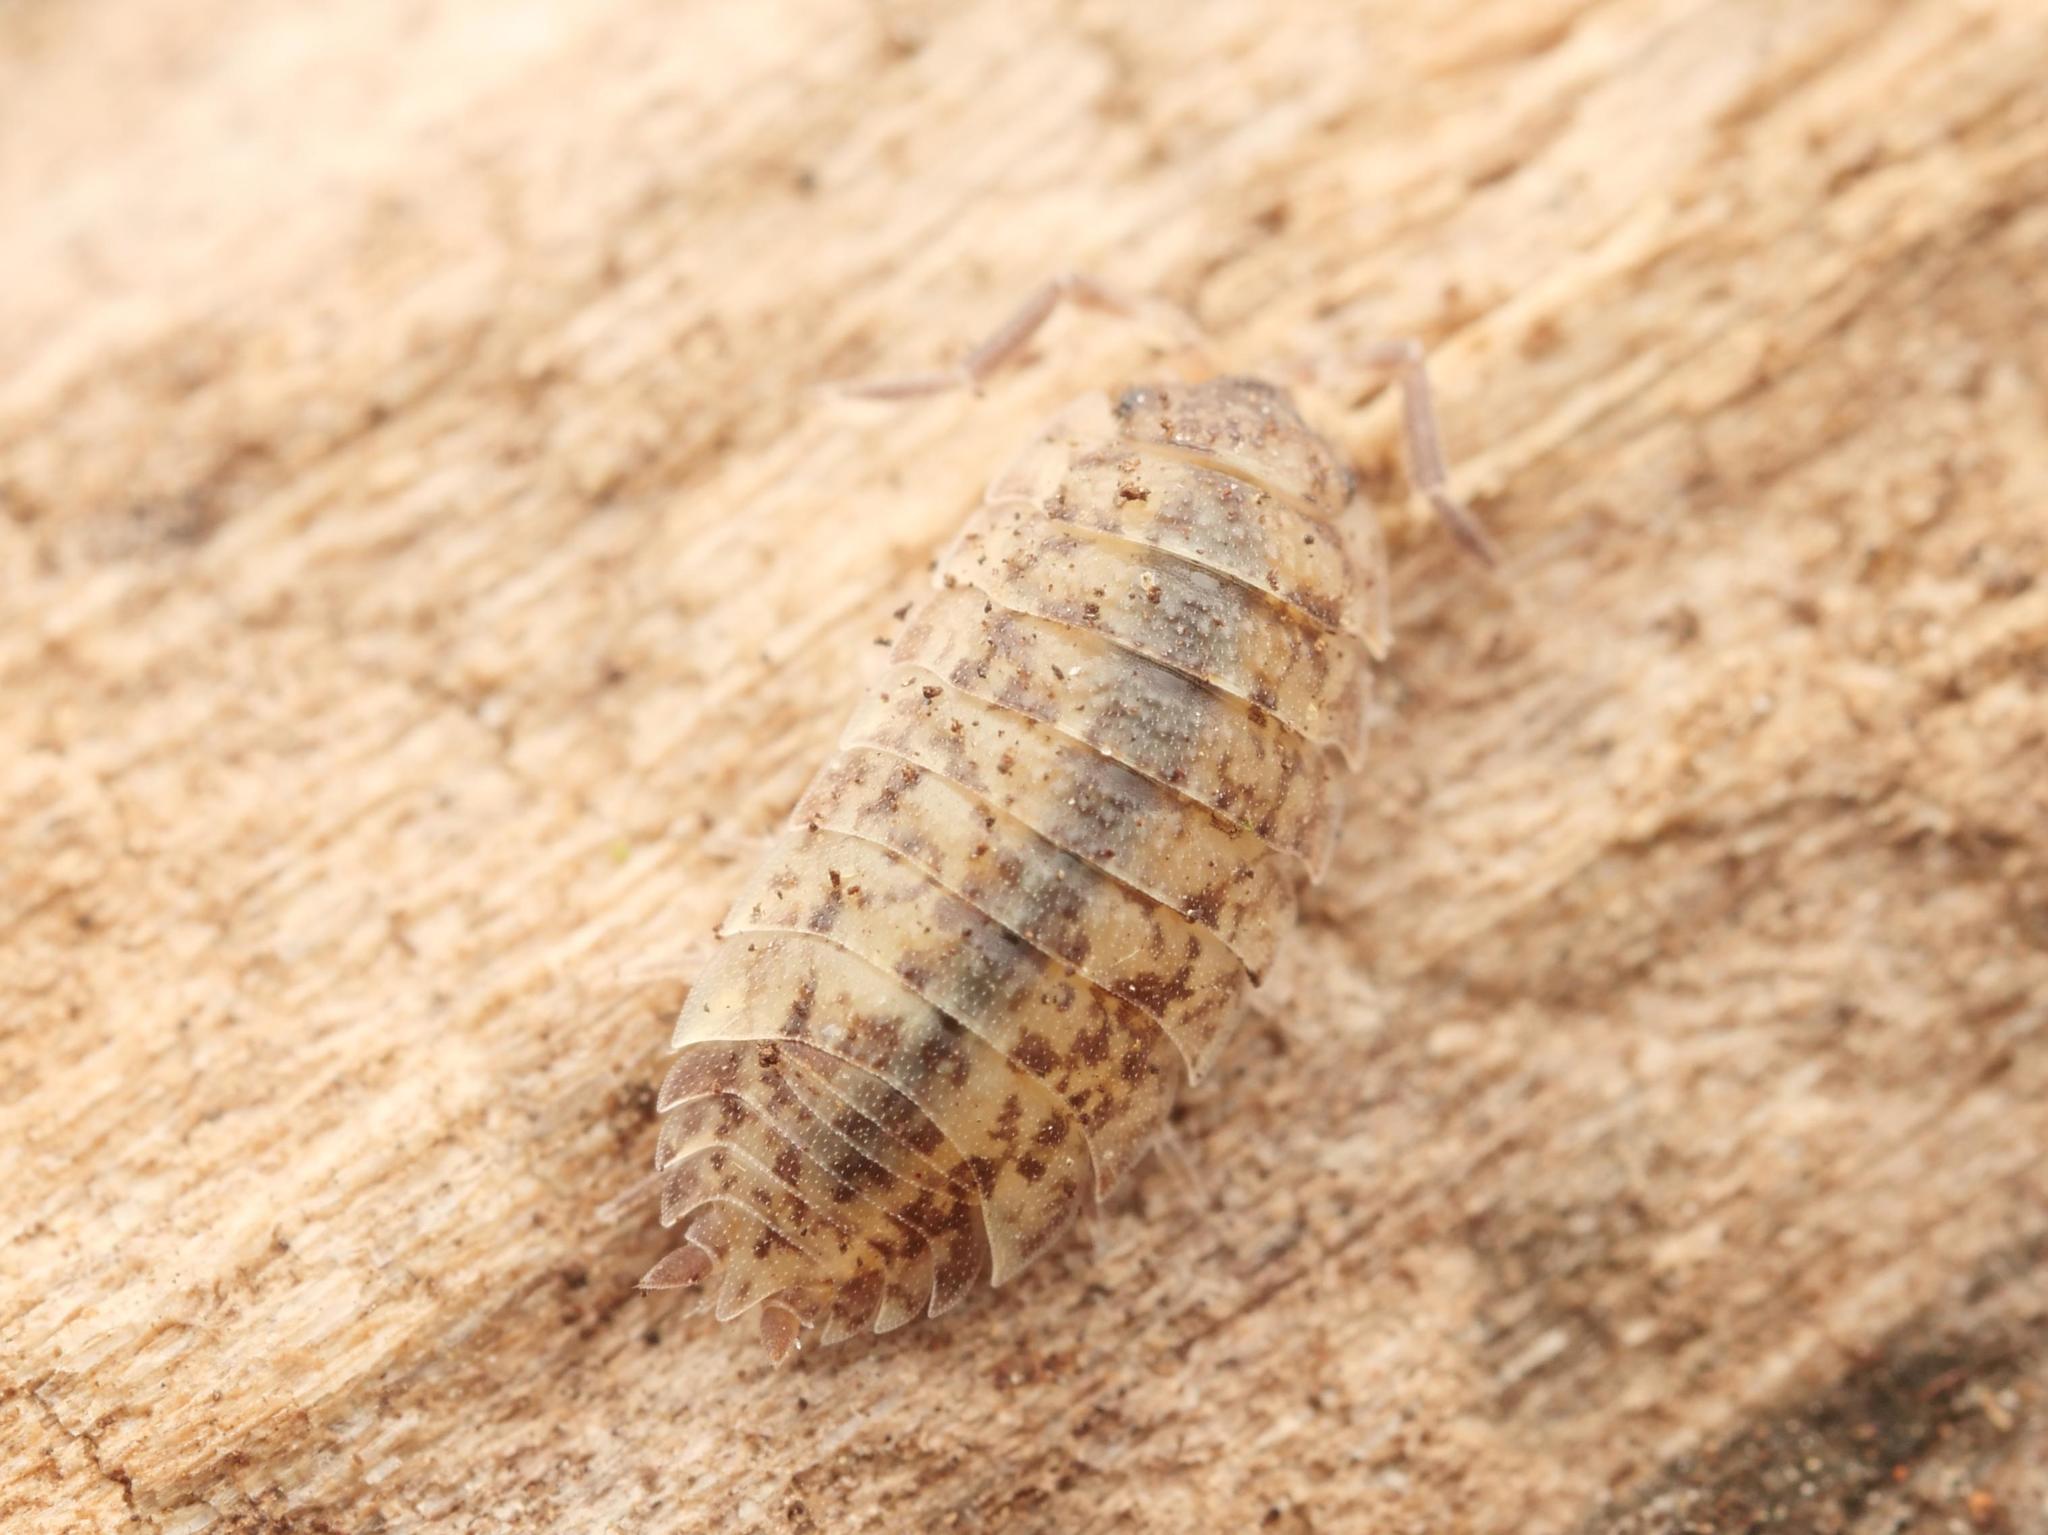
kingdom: Animalia
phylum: Arthropoda
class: Malacostraca
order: Isopoda
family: Porcellionidae
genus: Porcellio
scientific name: Porcellio scaber
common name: Common rough woodlouse
